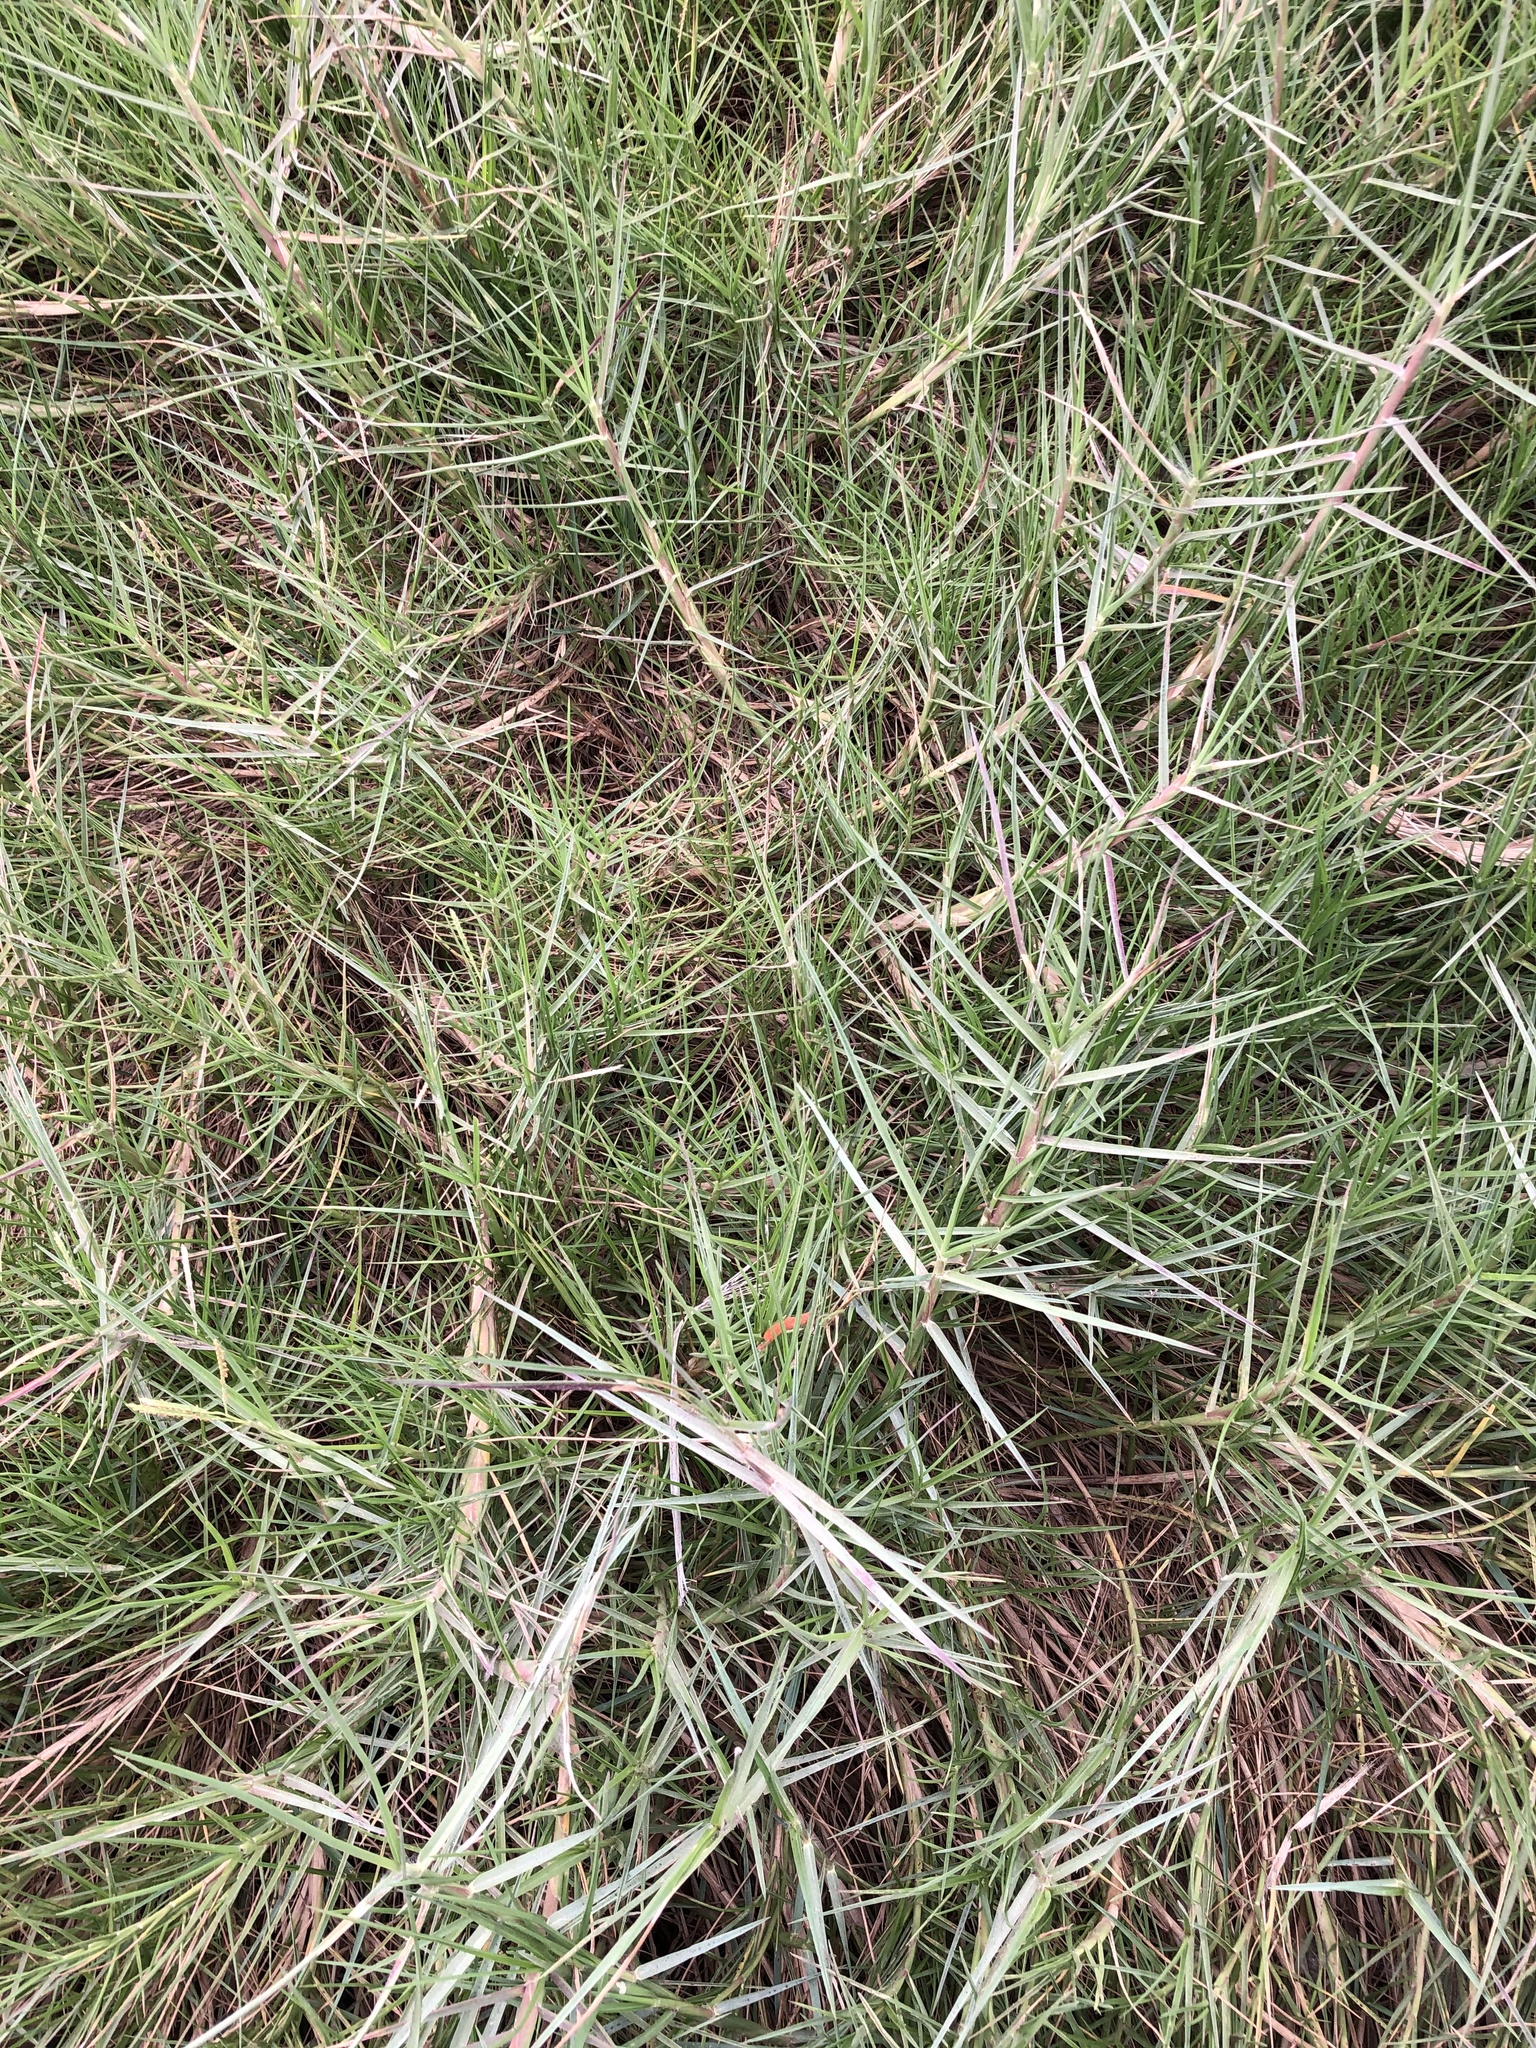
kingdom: Plantae
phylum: Tracheophyta
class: Liliopsida
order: Poales
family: Poaceae
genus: Distichlis
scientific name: Distichlis spicata
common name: Saltgrass
